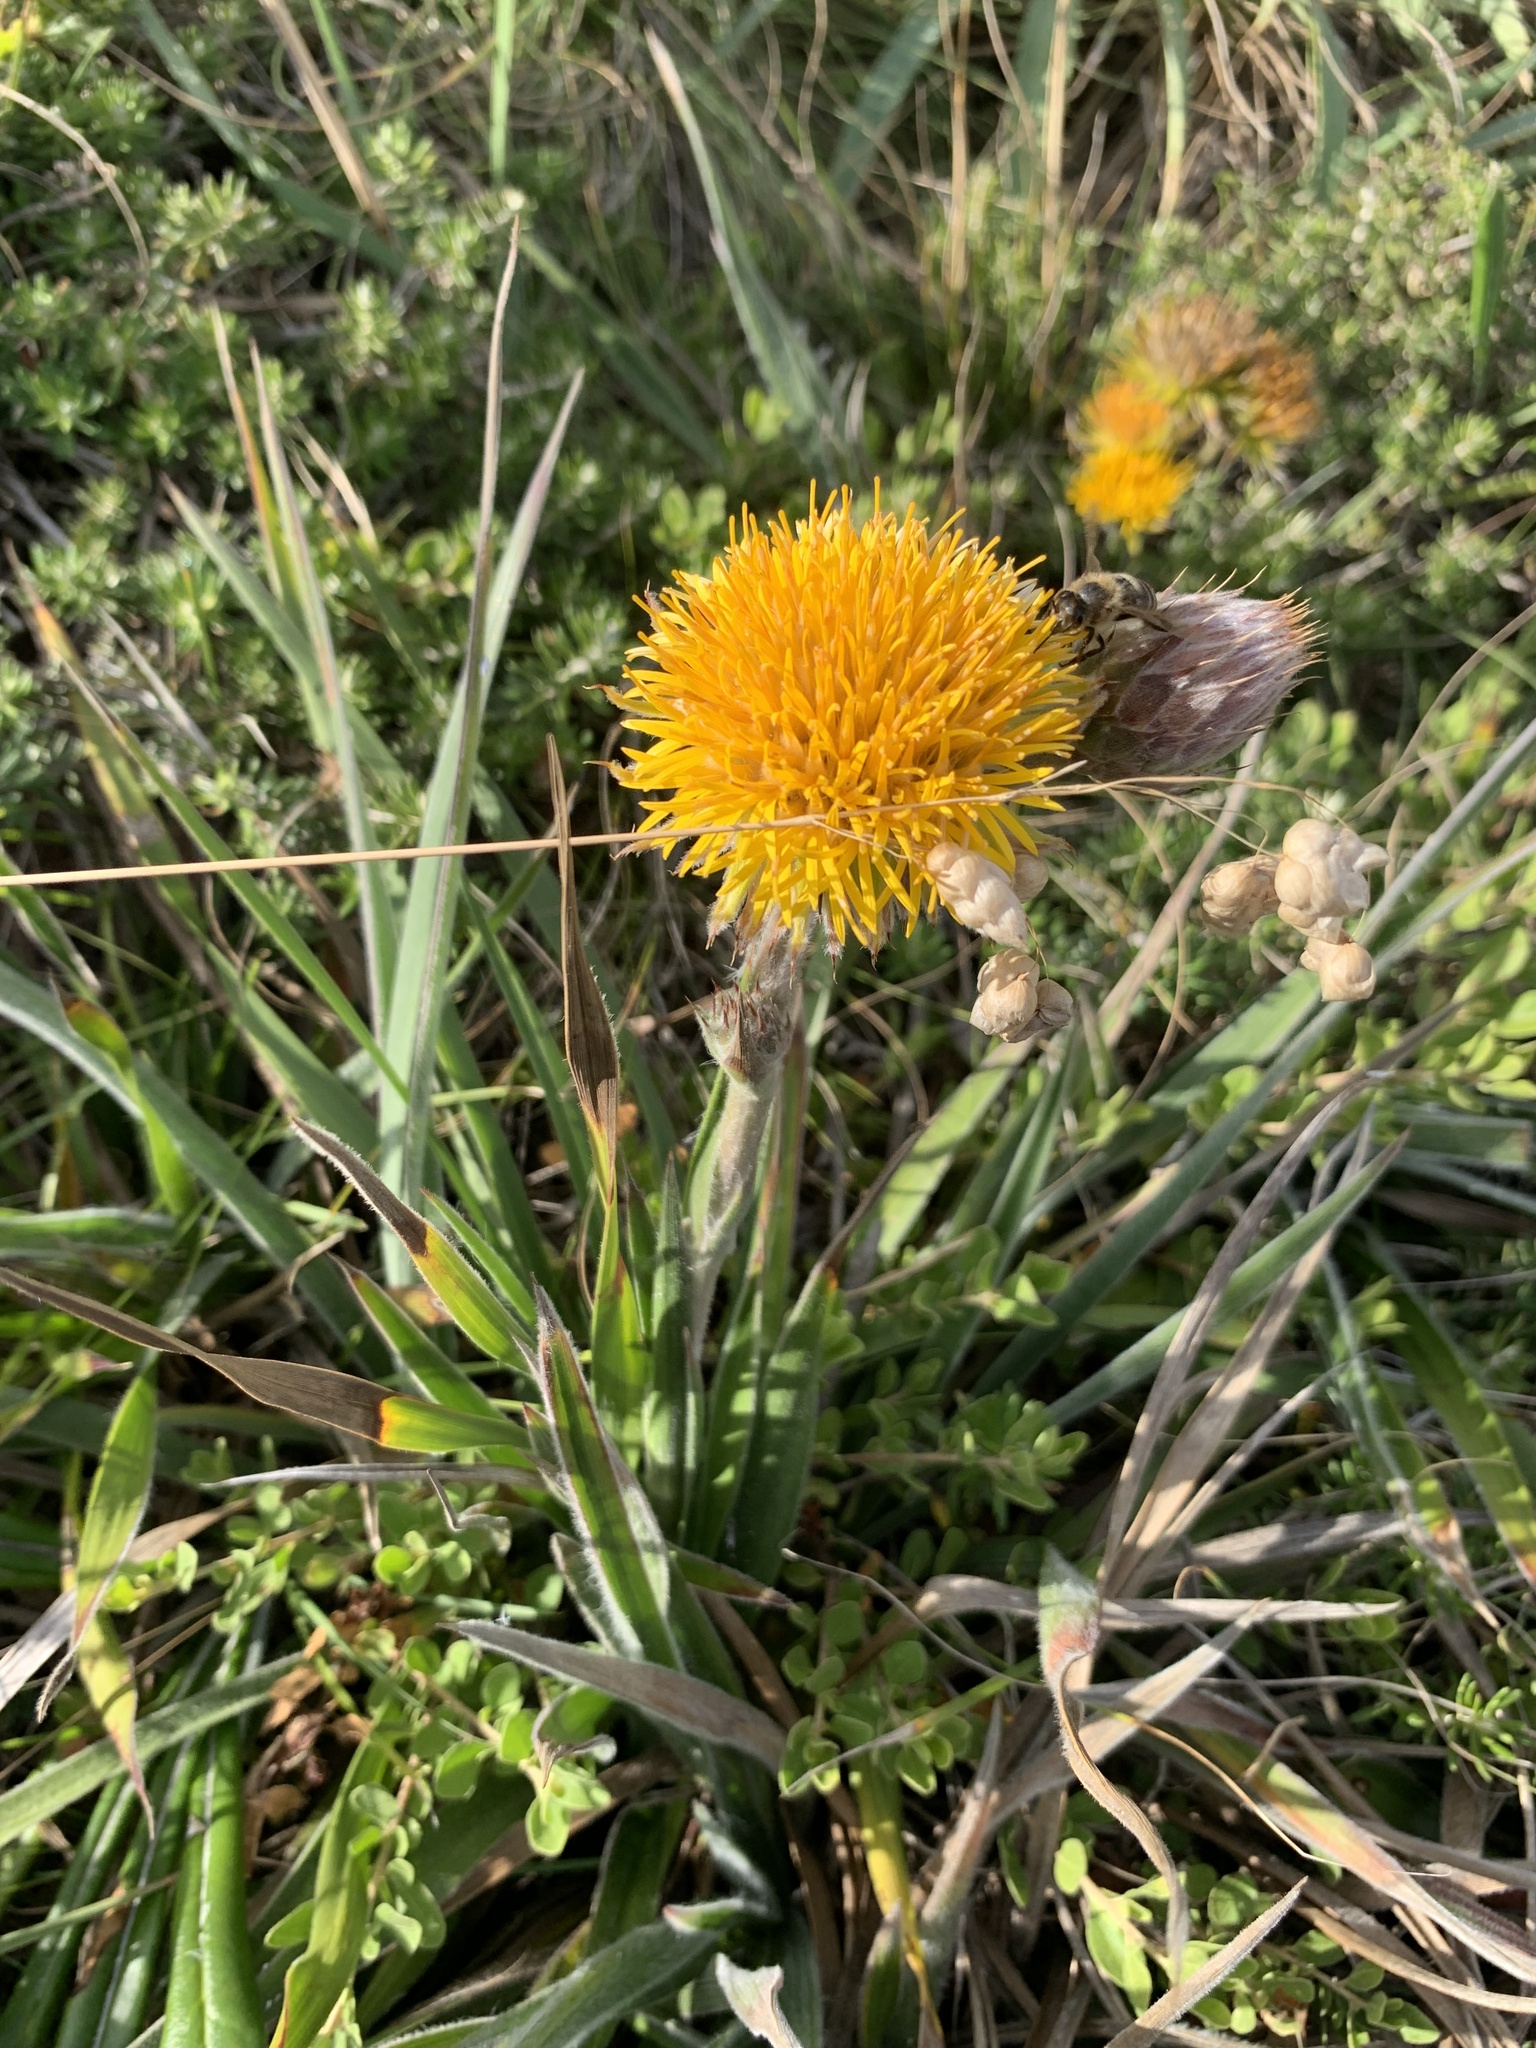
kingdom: Plantae
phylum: Tracheophyta
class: Magnoliopsida
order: Asterales
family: Asteraceae
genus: Schlechtendalia
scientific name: Schlechtendalia luzulifolia
